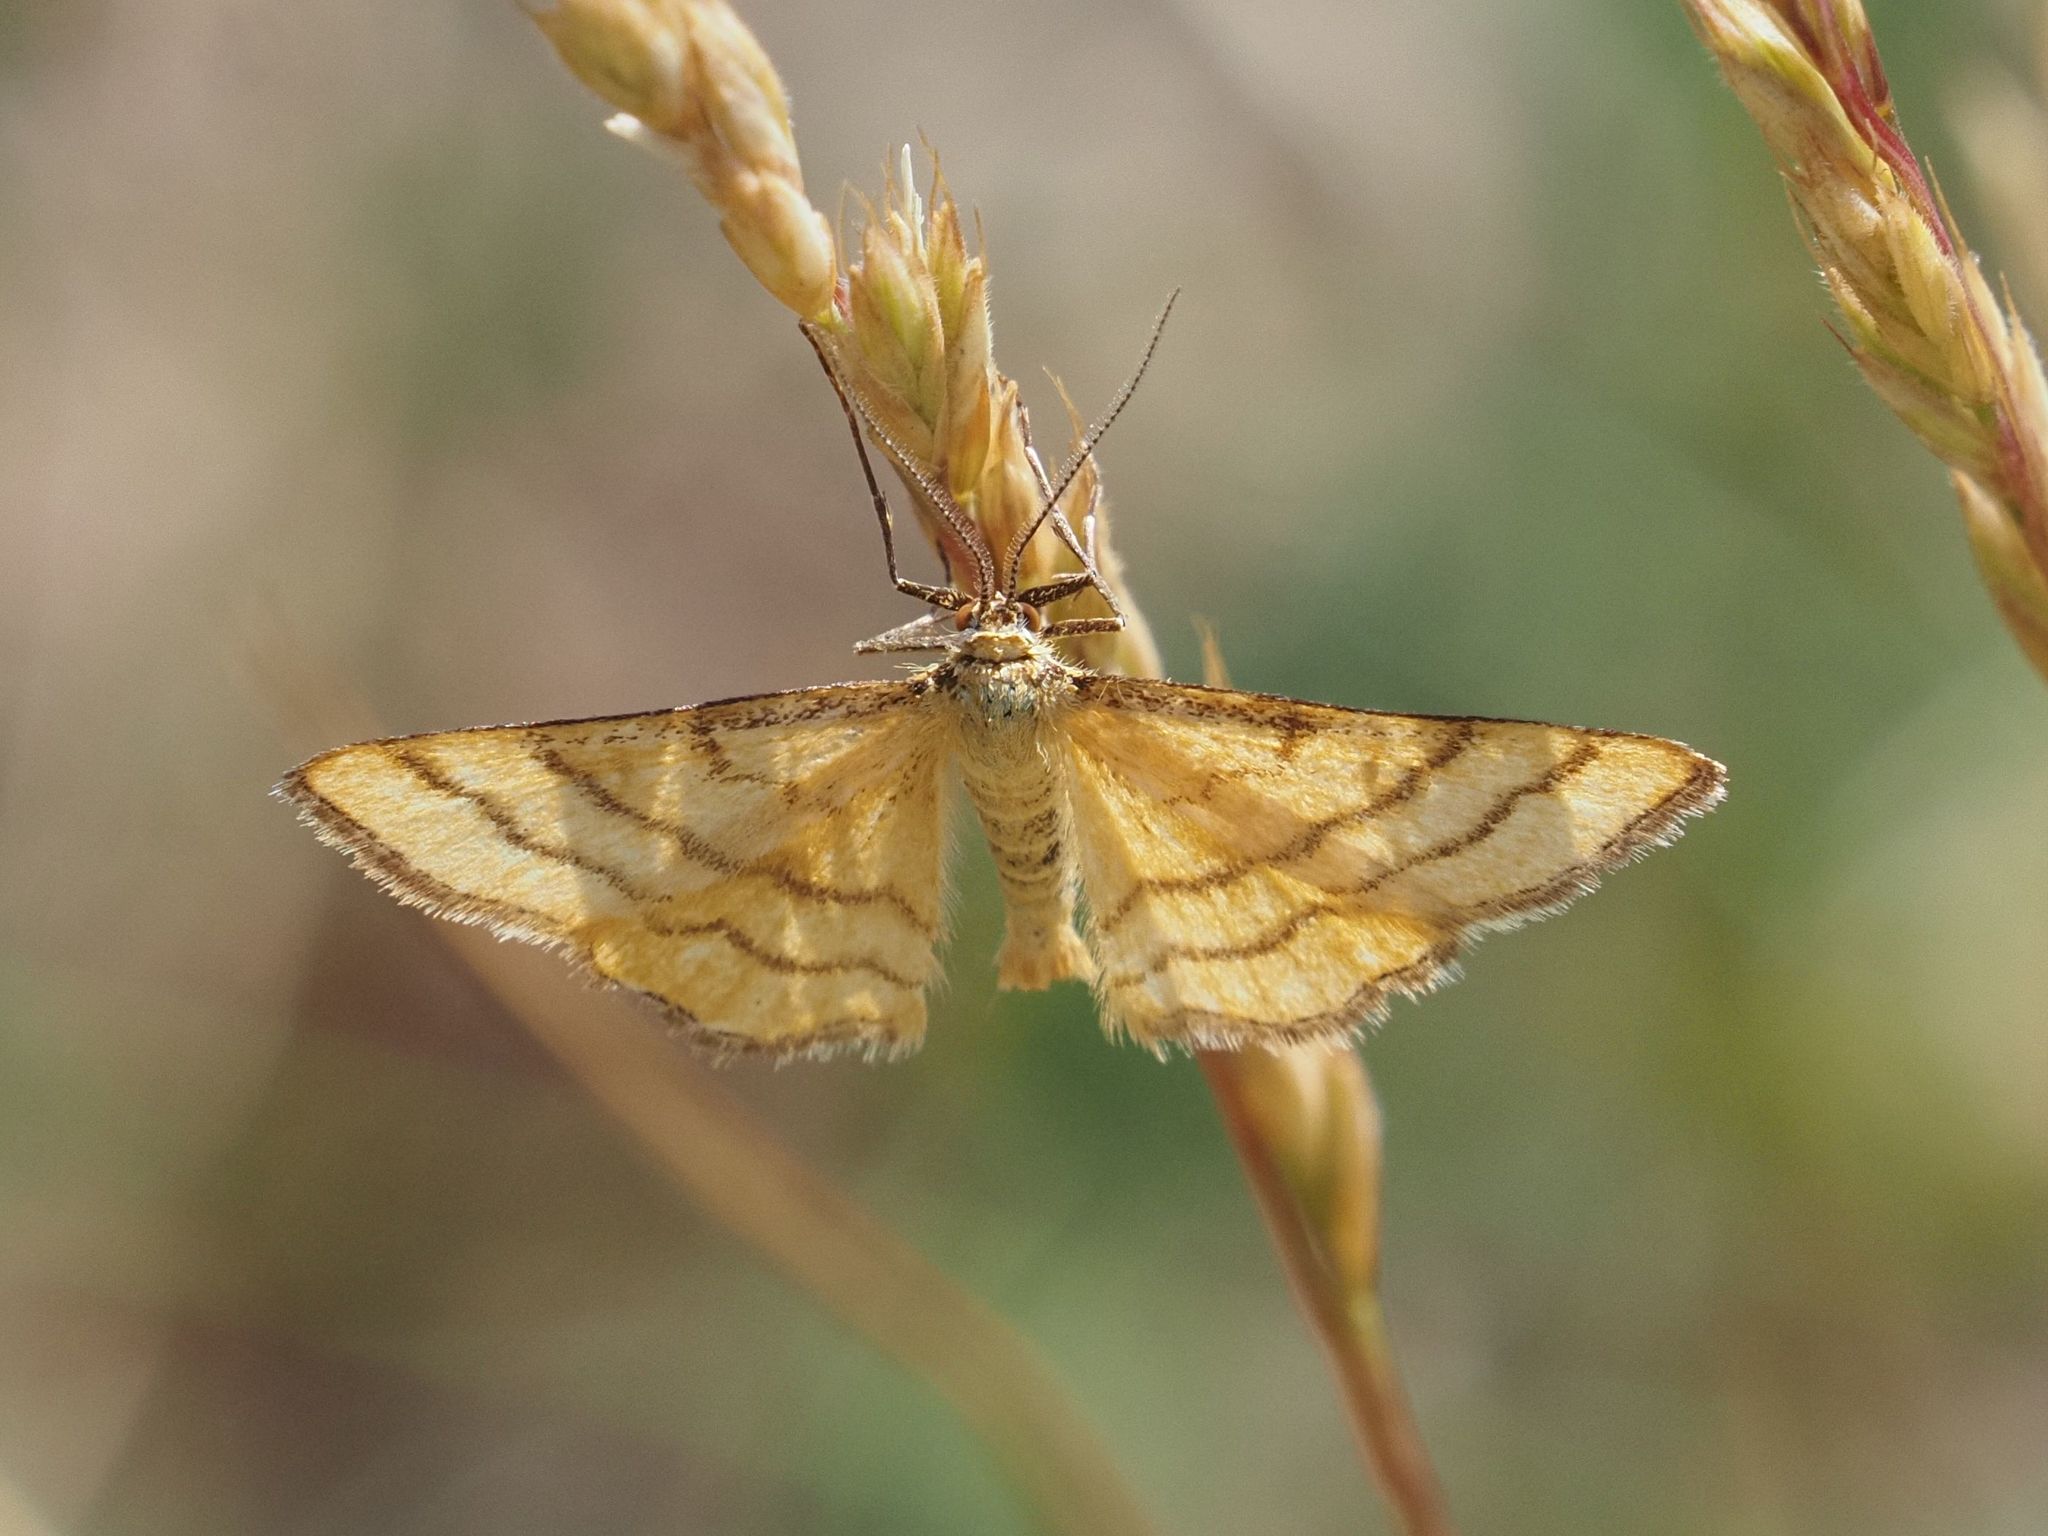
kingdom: Animalia
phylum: Arthropoda
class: Insecta
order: Lepidoptera
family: Geometridae
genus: Idaea
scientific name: Idaea aureolaria
